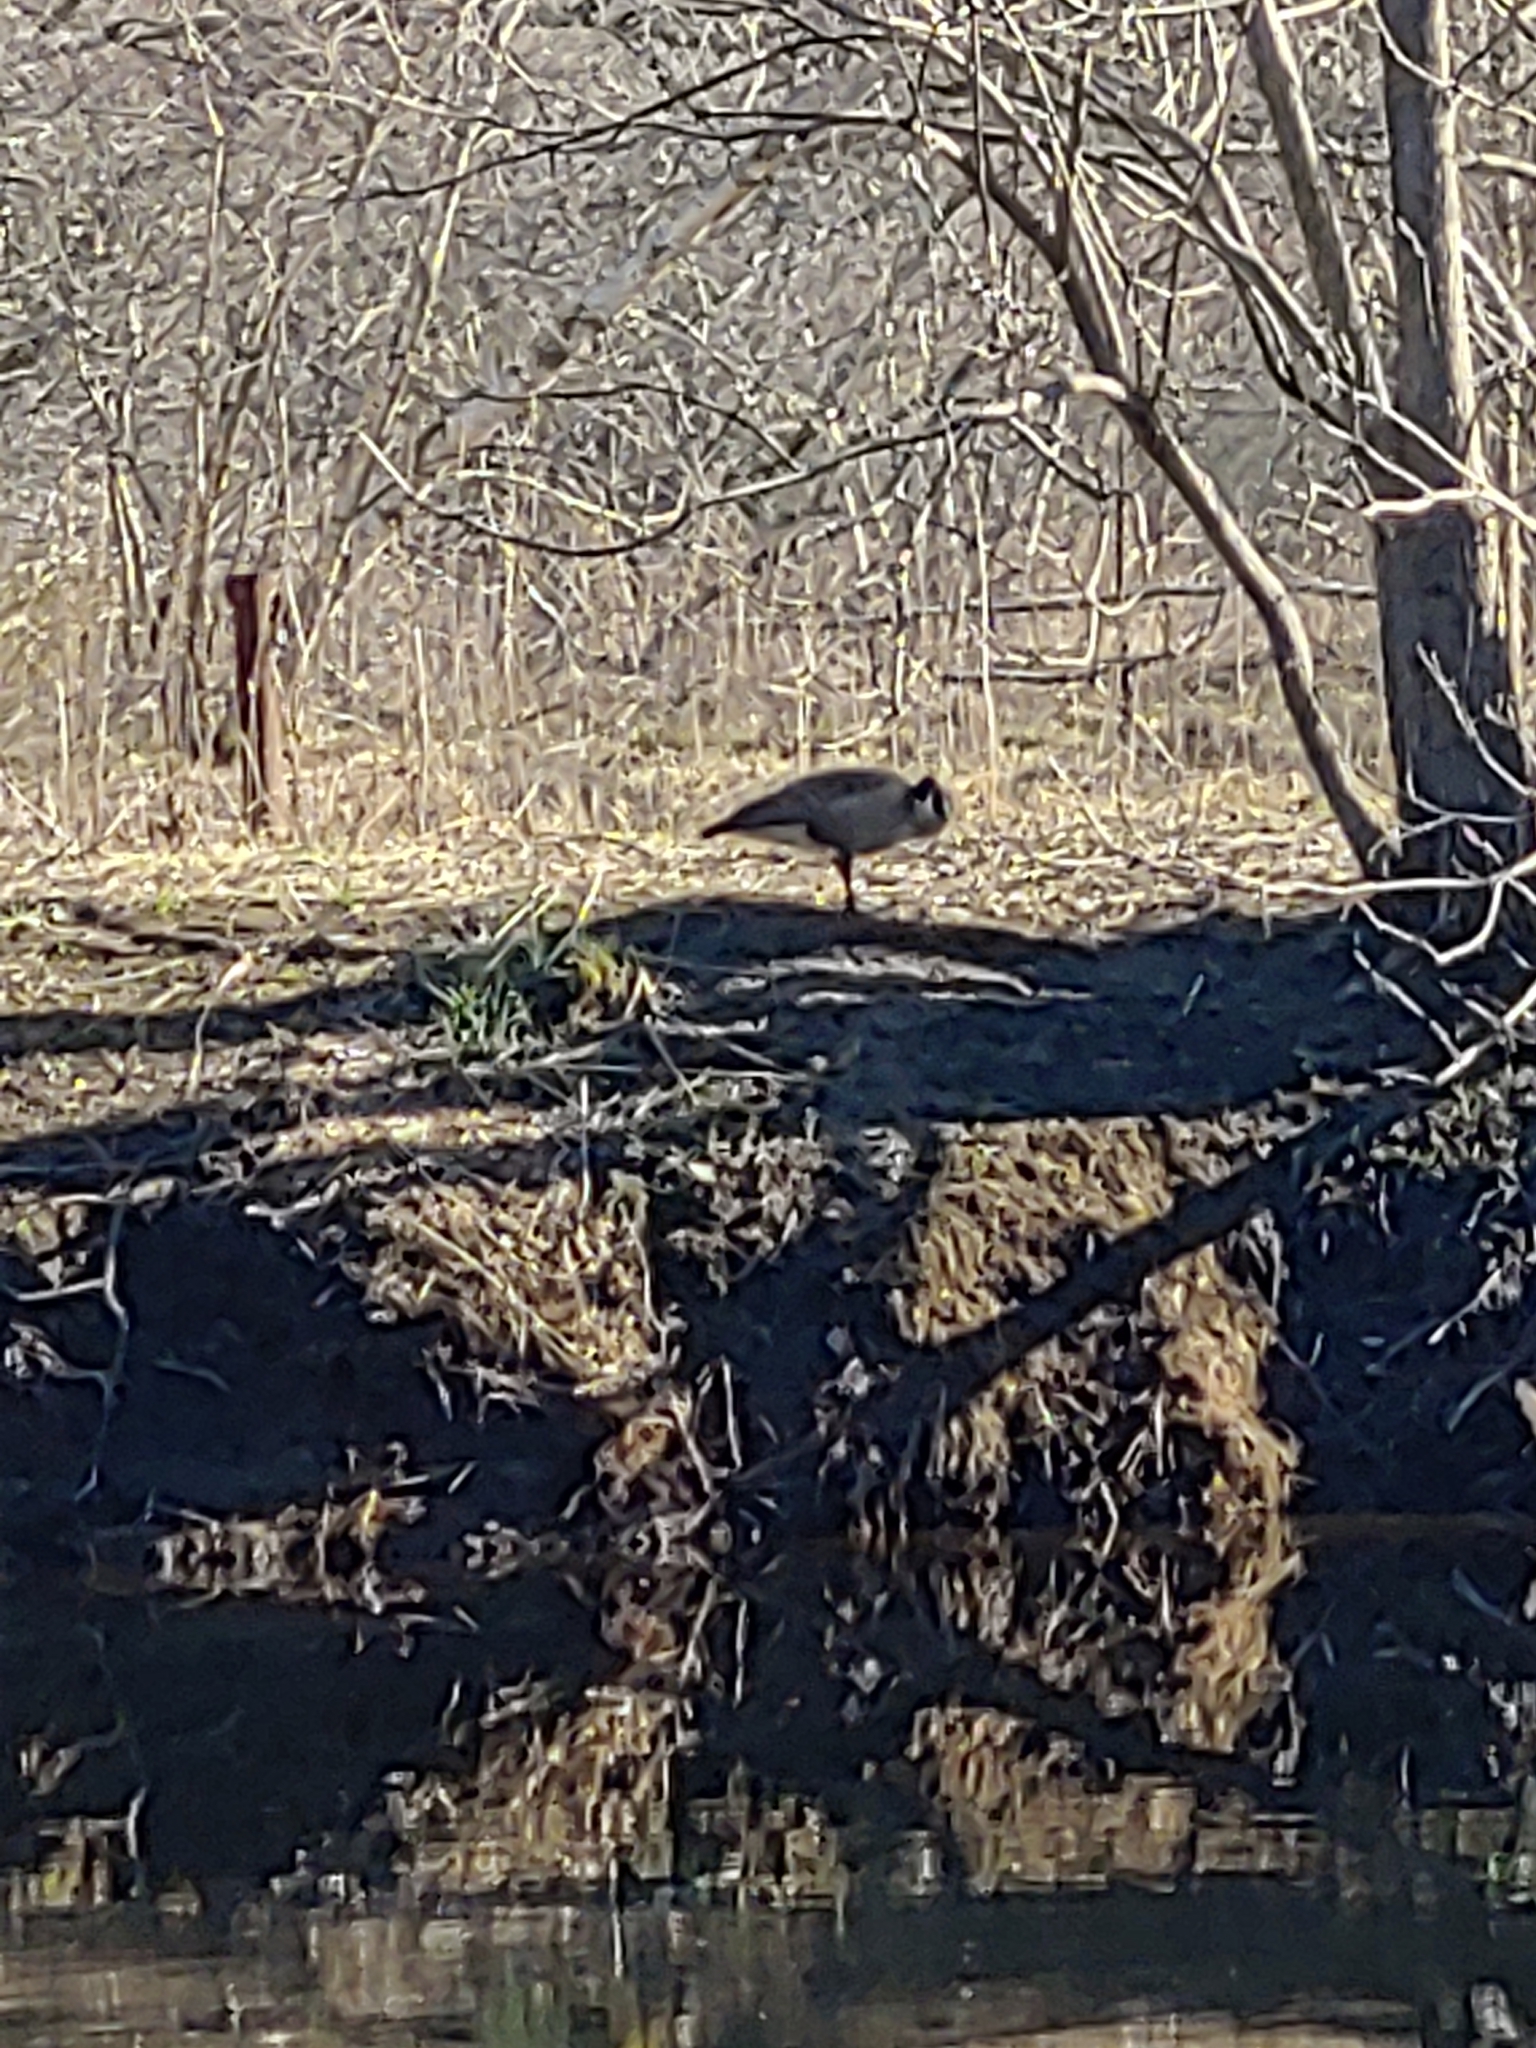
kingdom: Animalia
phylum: Chordata
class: Aves
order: Anseriformes
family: Anatidae
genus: Branta
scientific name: Branta canadensis
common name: Canada goose
